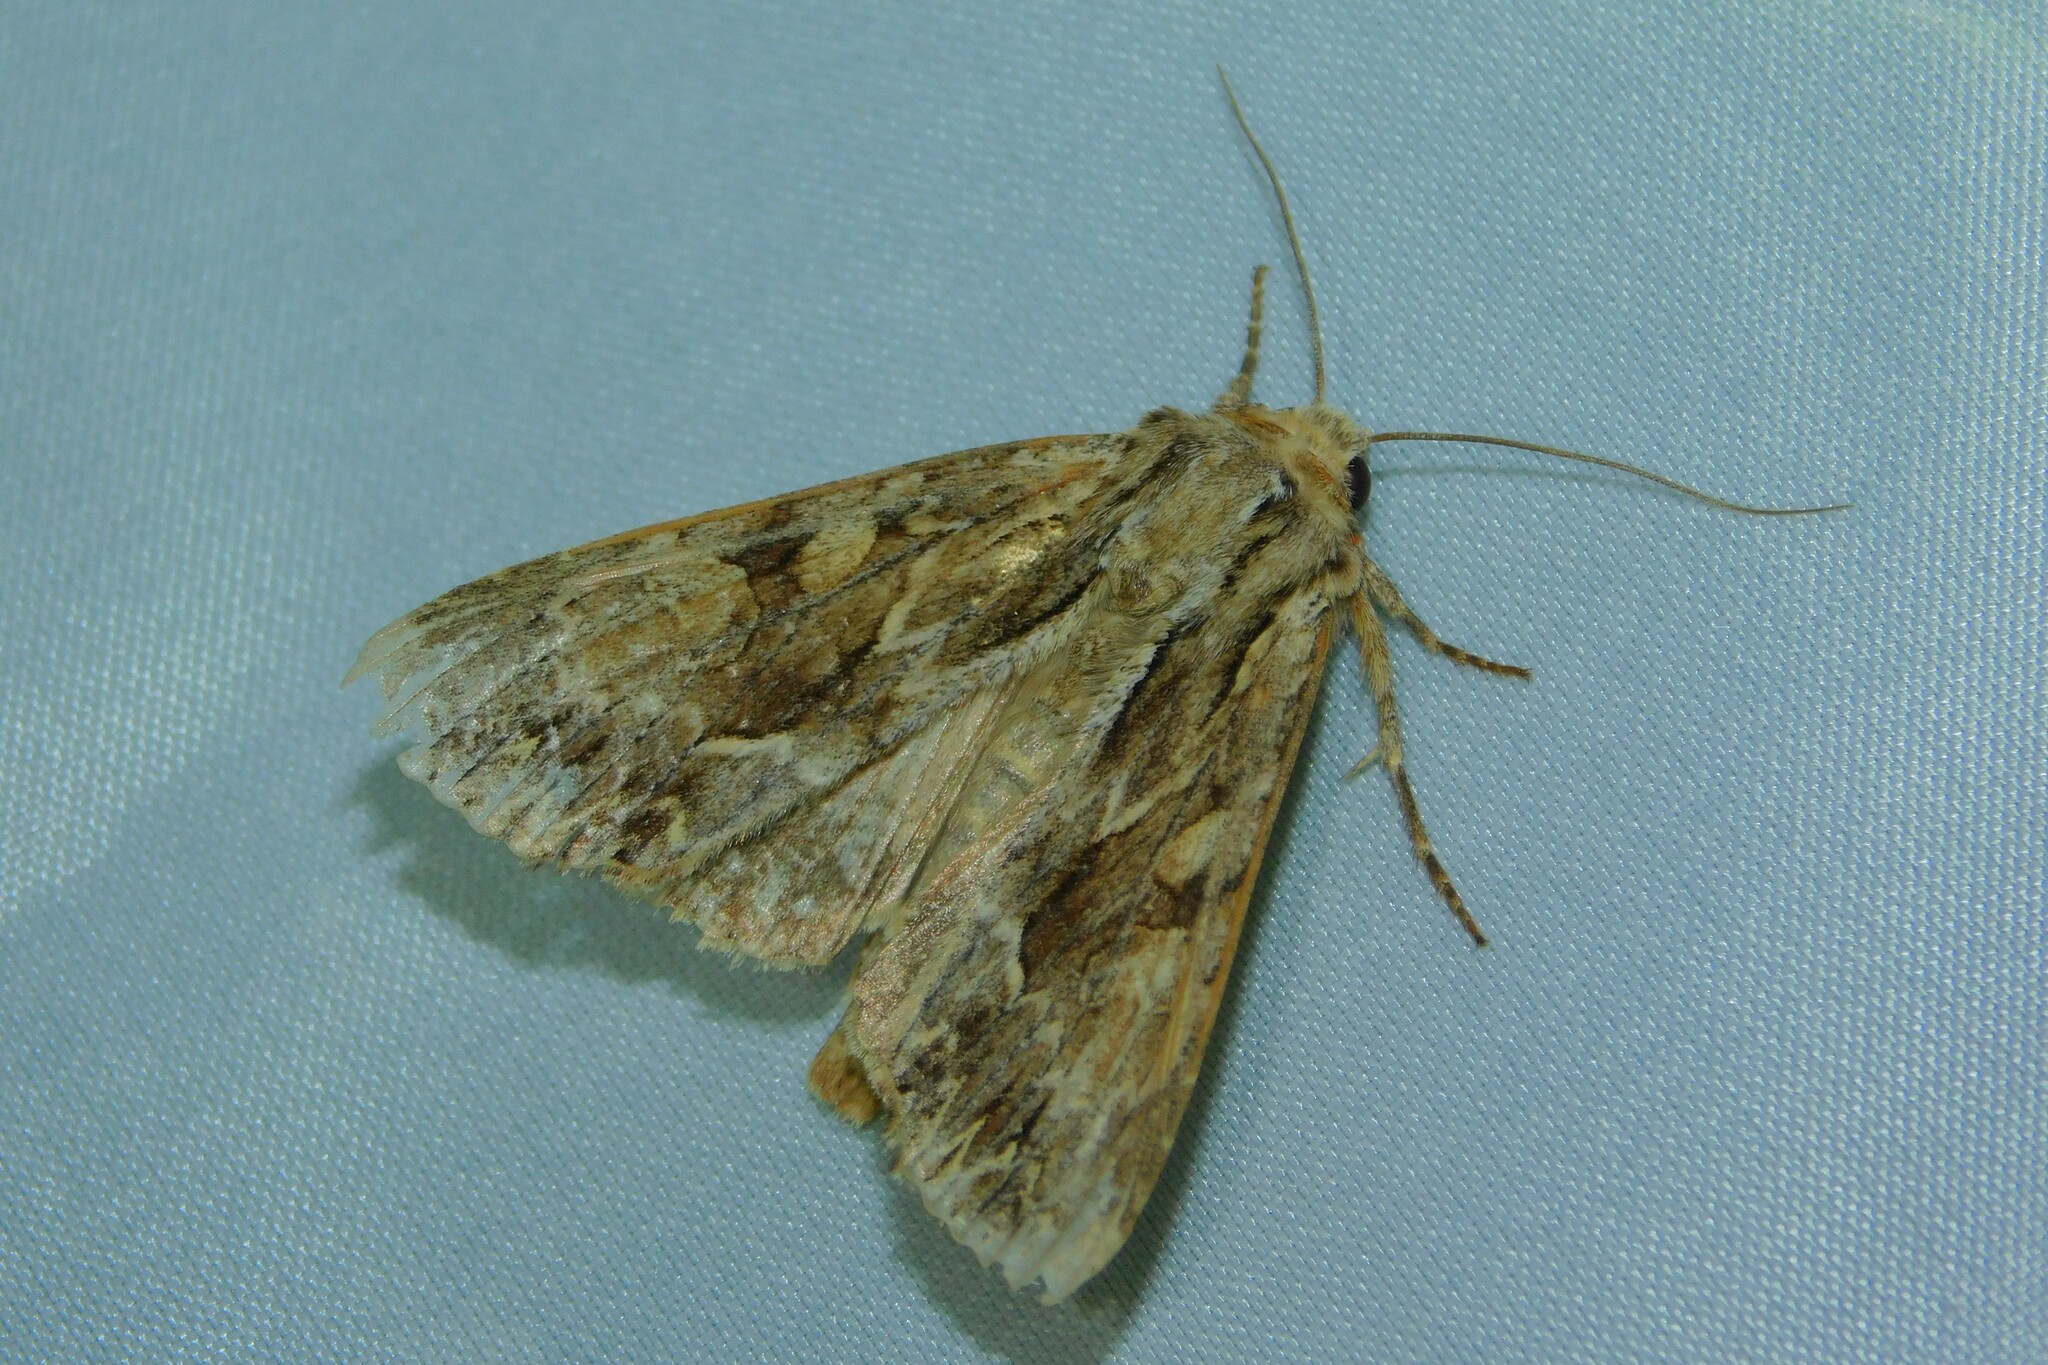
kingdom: Animalia
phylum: Arthropoda
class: Insecta
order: Lepidoptera
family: Noctuidae
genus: Apamea
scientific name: Apamea monoglypha
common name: Dark arches
